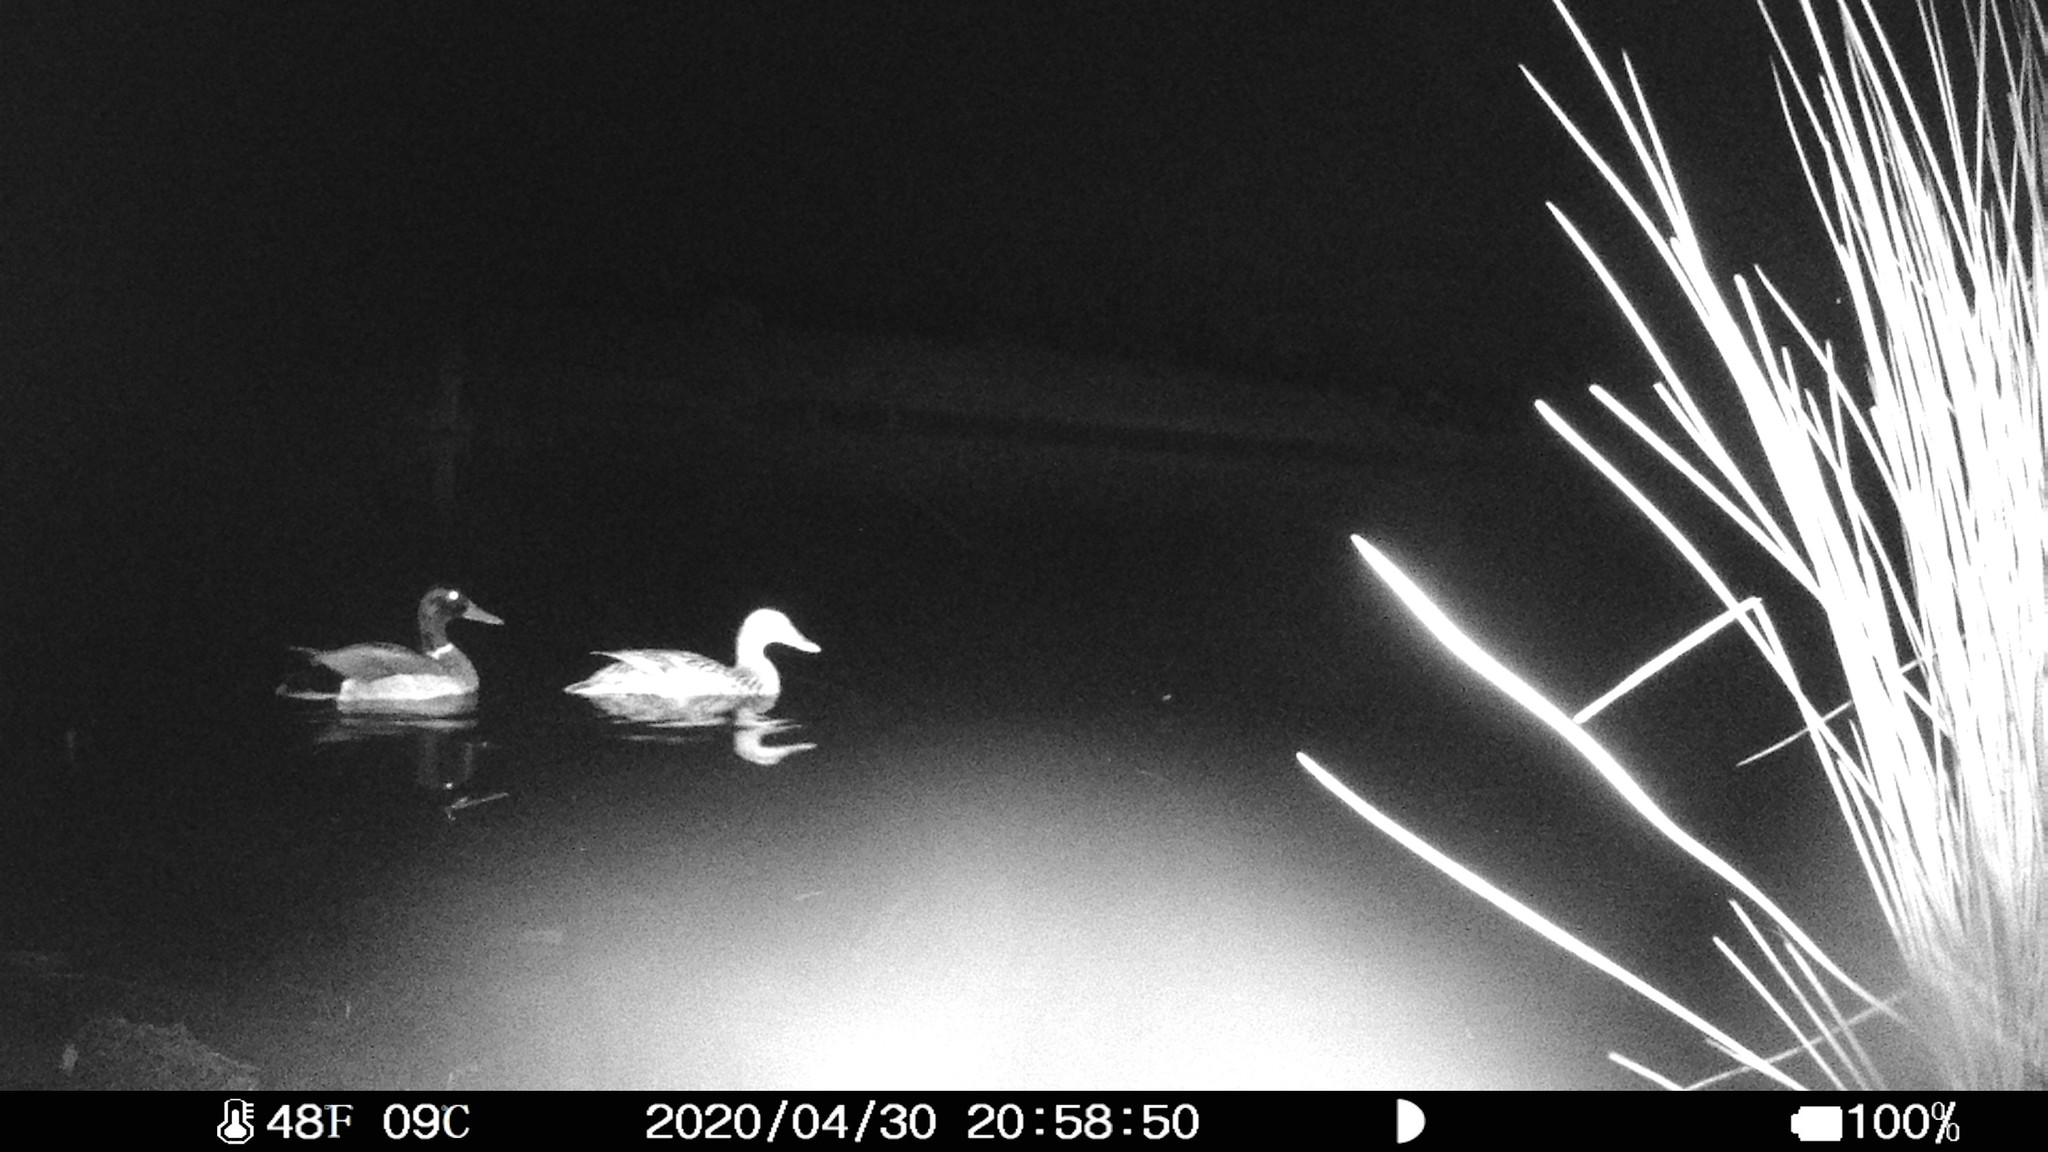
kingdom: Animalia
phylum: Chordata
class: Aves
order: Anseriformes
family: Anatidae
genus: Anas
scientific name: Anas platyrhynchos
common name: Mallard
